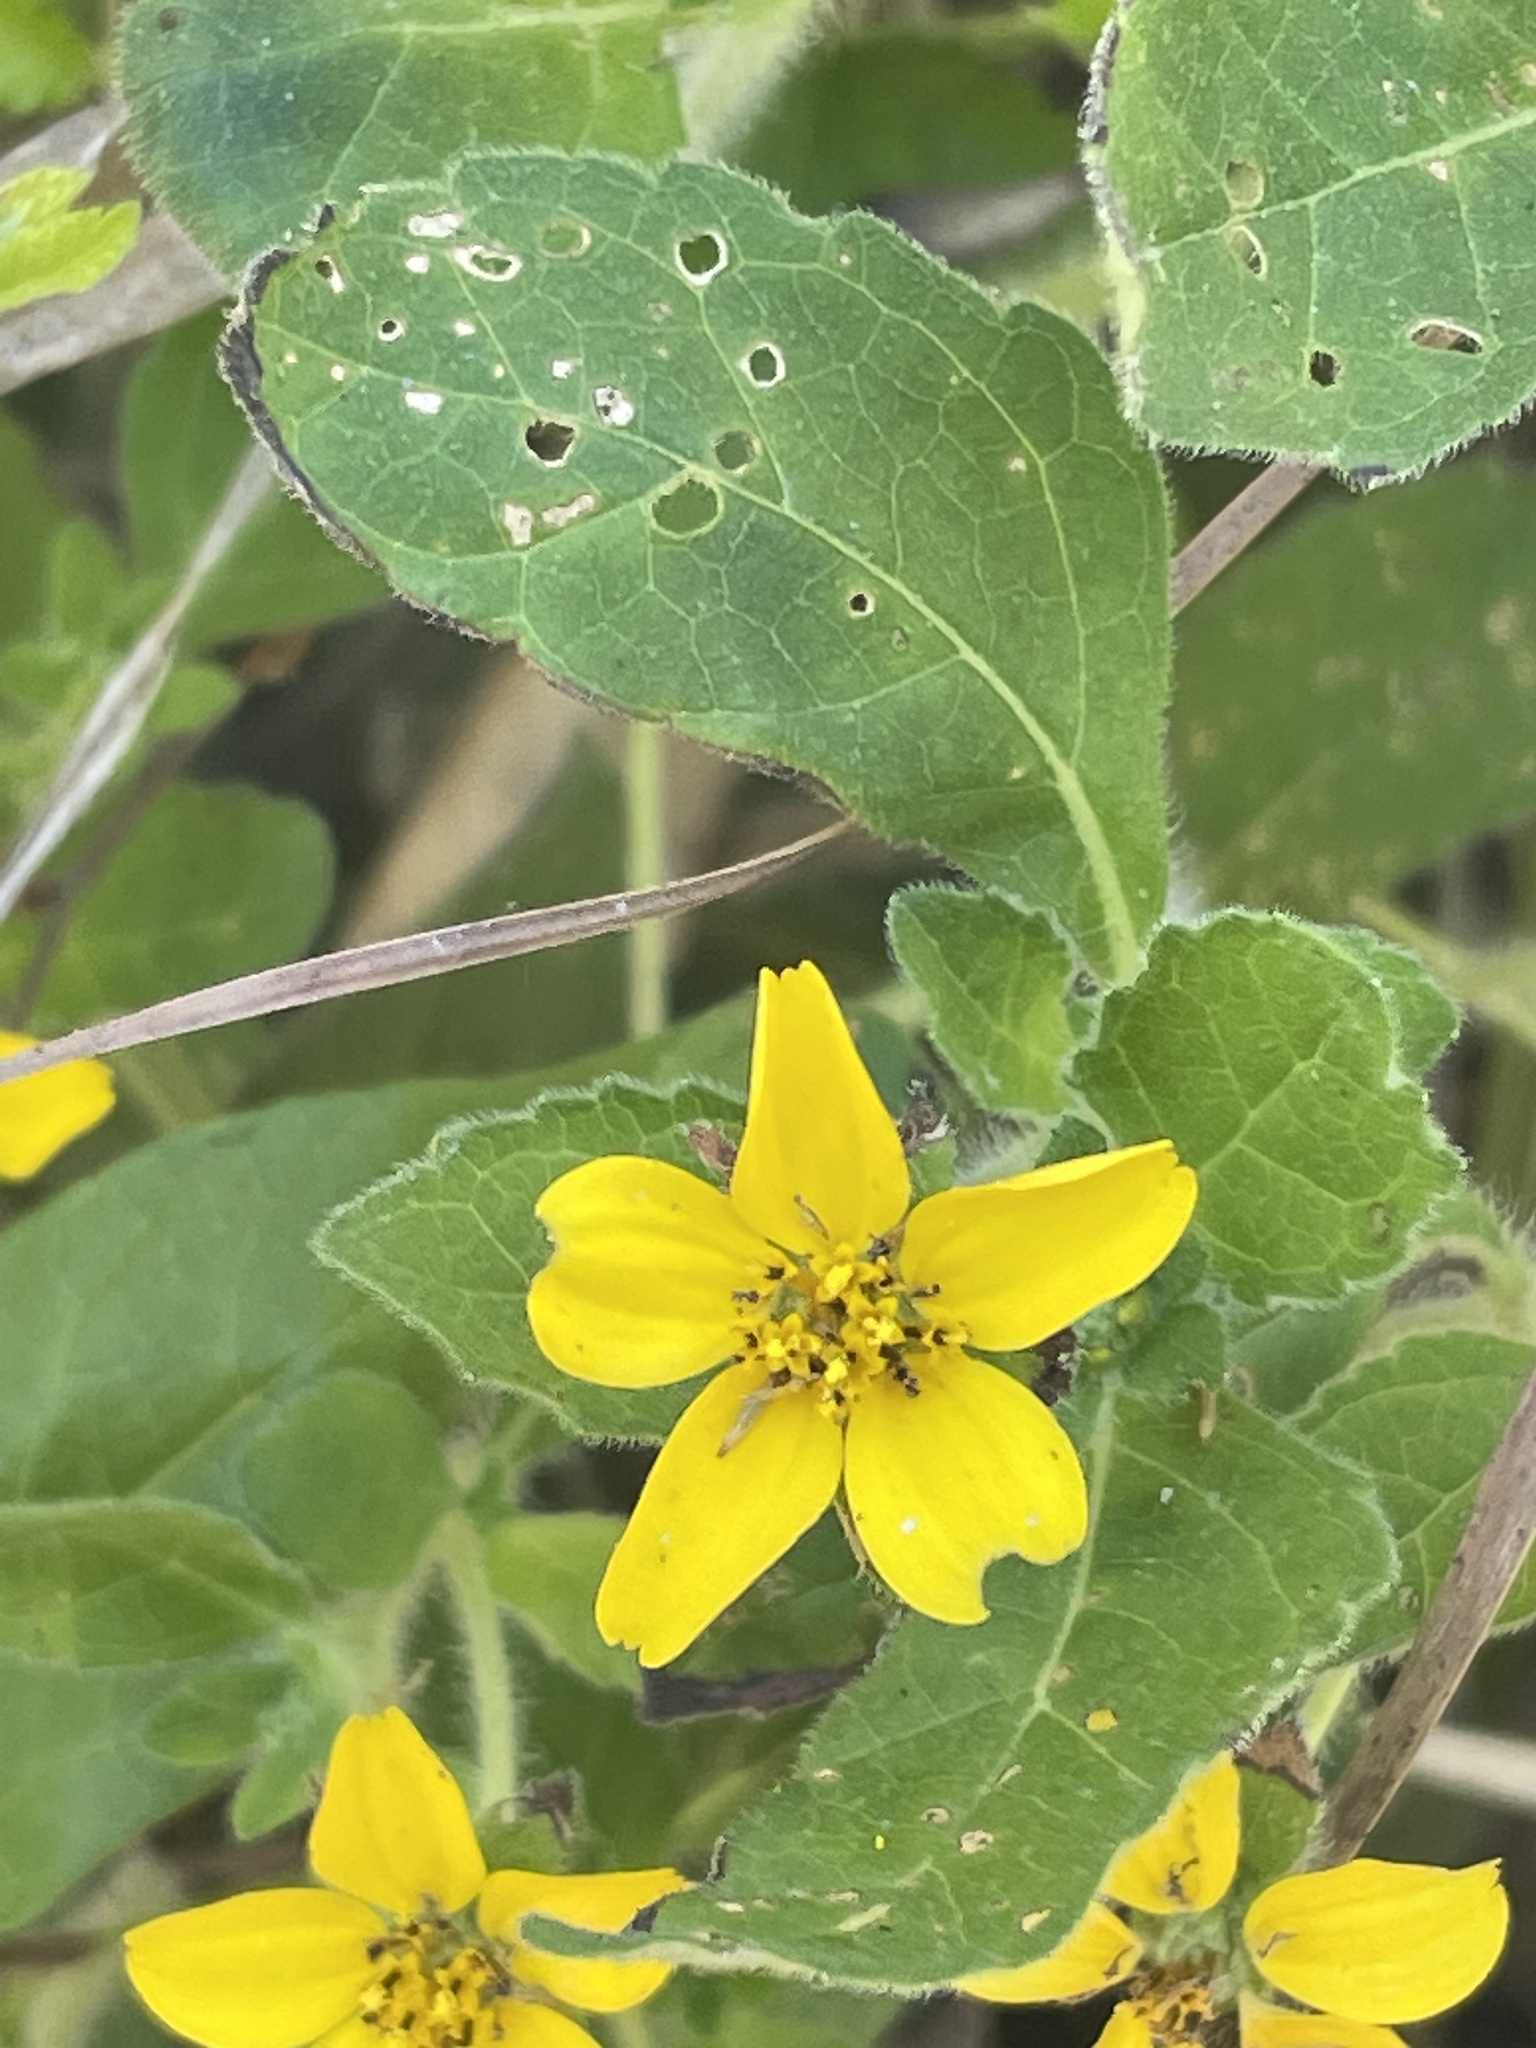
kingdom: Plantae
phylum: Tracheophyta
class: Magnoliopsida
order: Asterales
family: Asteraceae
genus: Chrysogonum
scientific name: Chrysogonum virginianum
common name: Golden-knee
